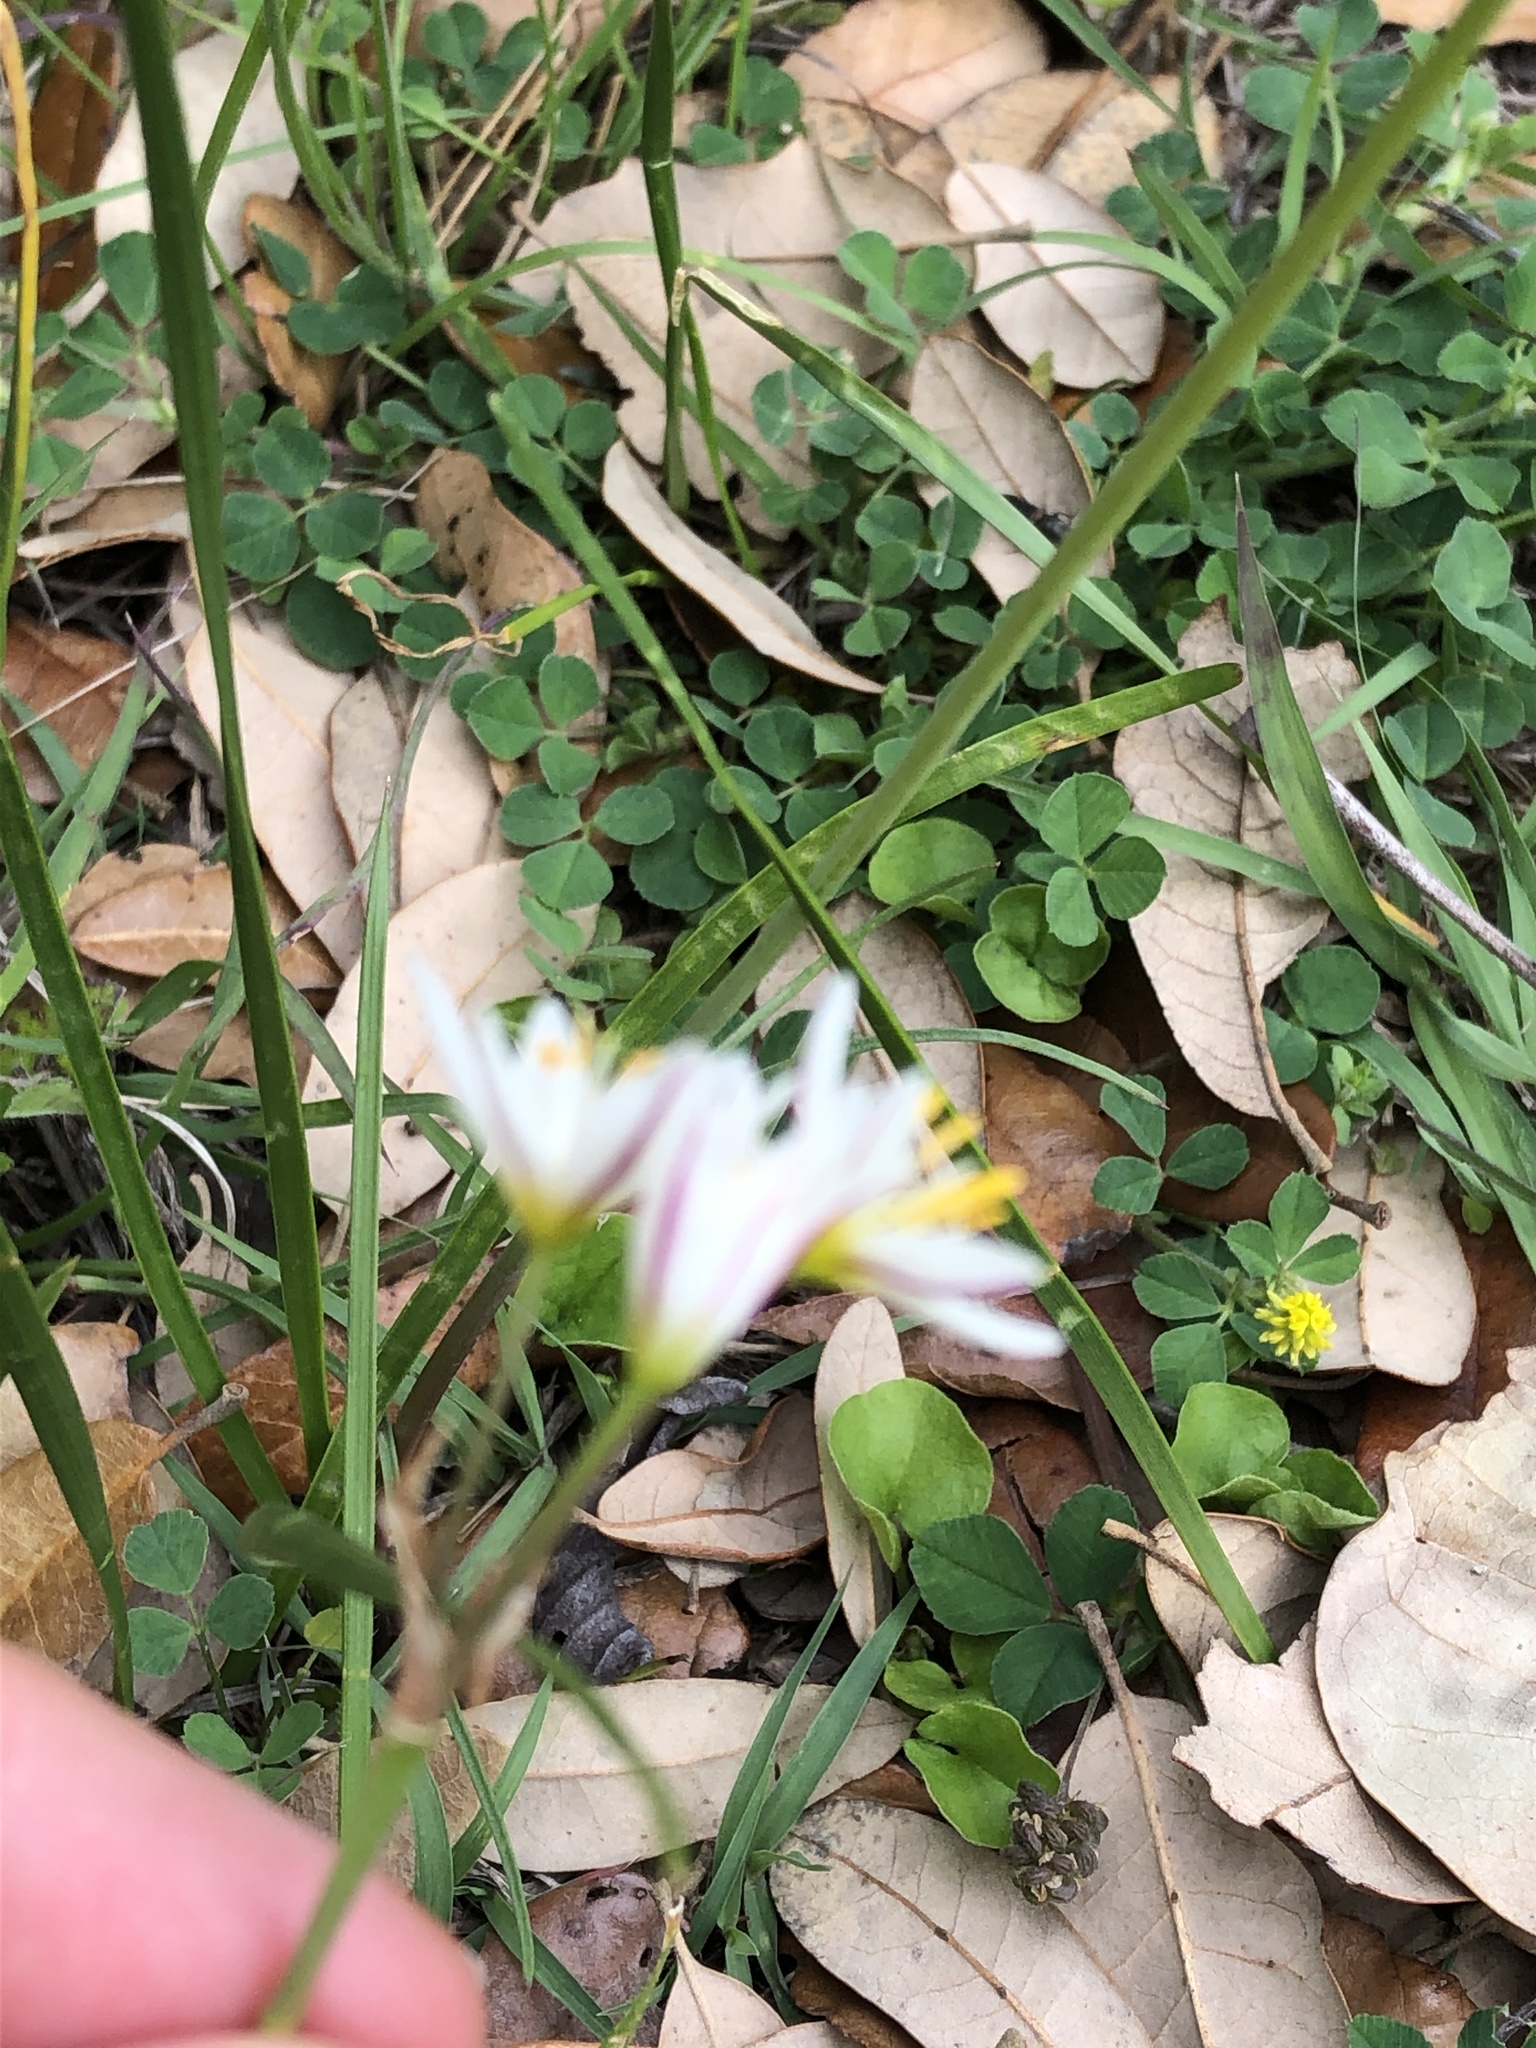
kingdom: Plantae
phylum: Tracheophyta
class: Liliopsida
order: Asparagales
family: Amaryllidaceae
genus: Nothoscordum
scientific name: Nothoscordum bivalve
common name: Crow-poison
